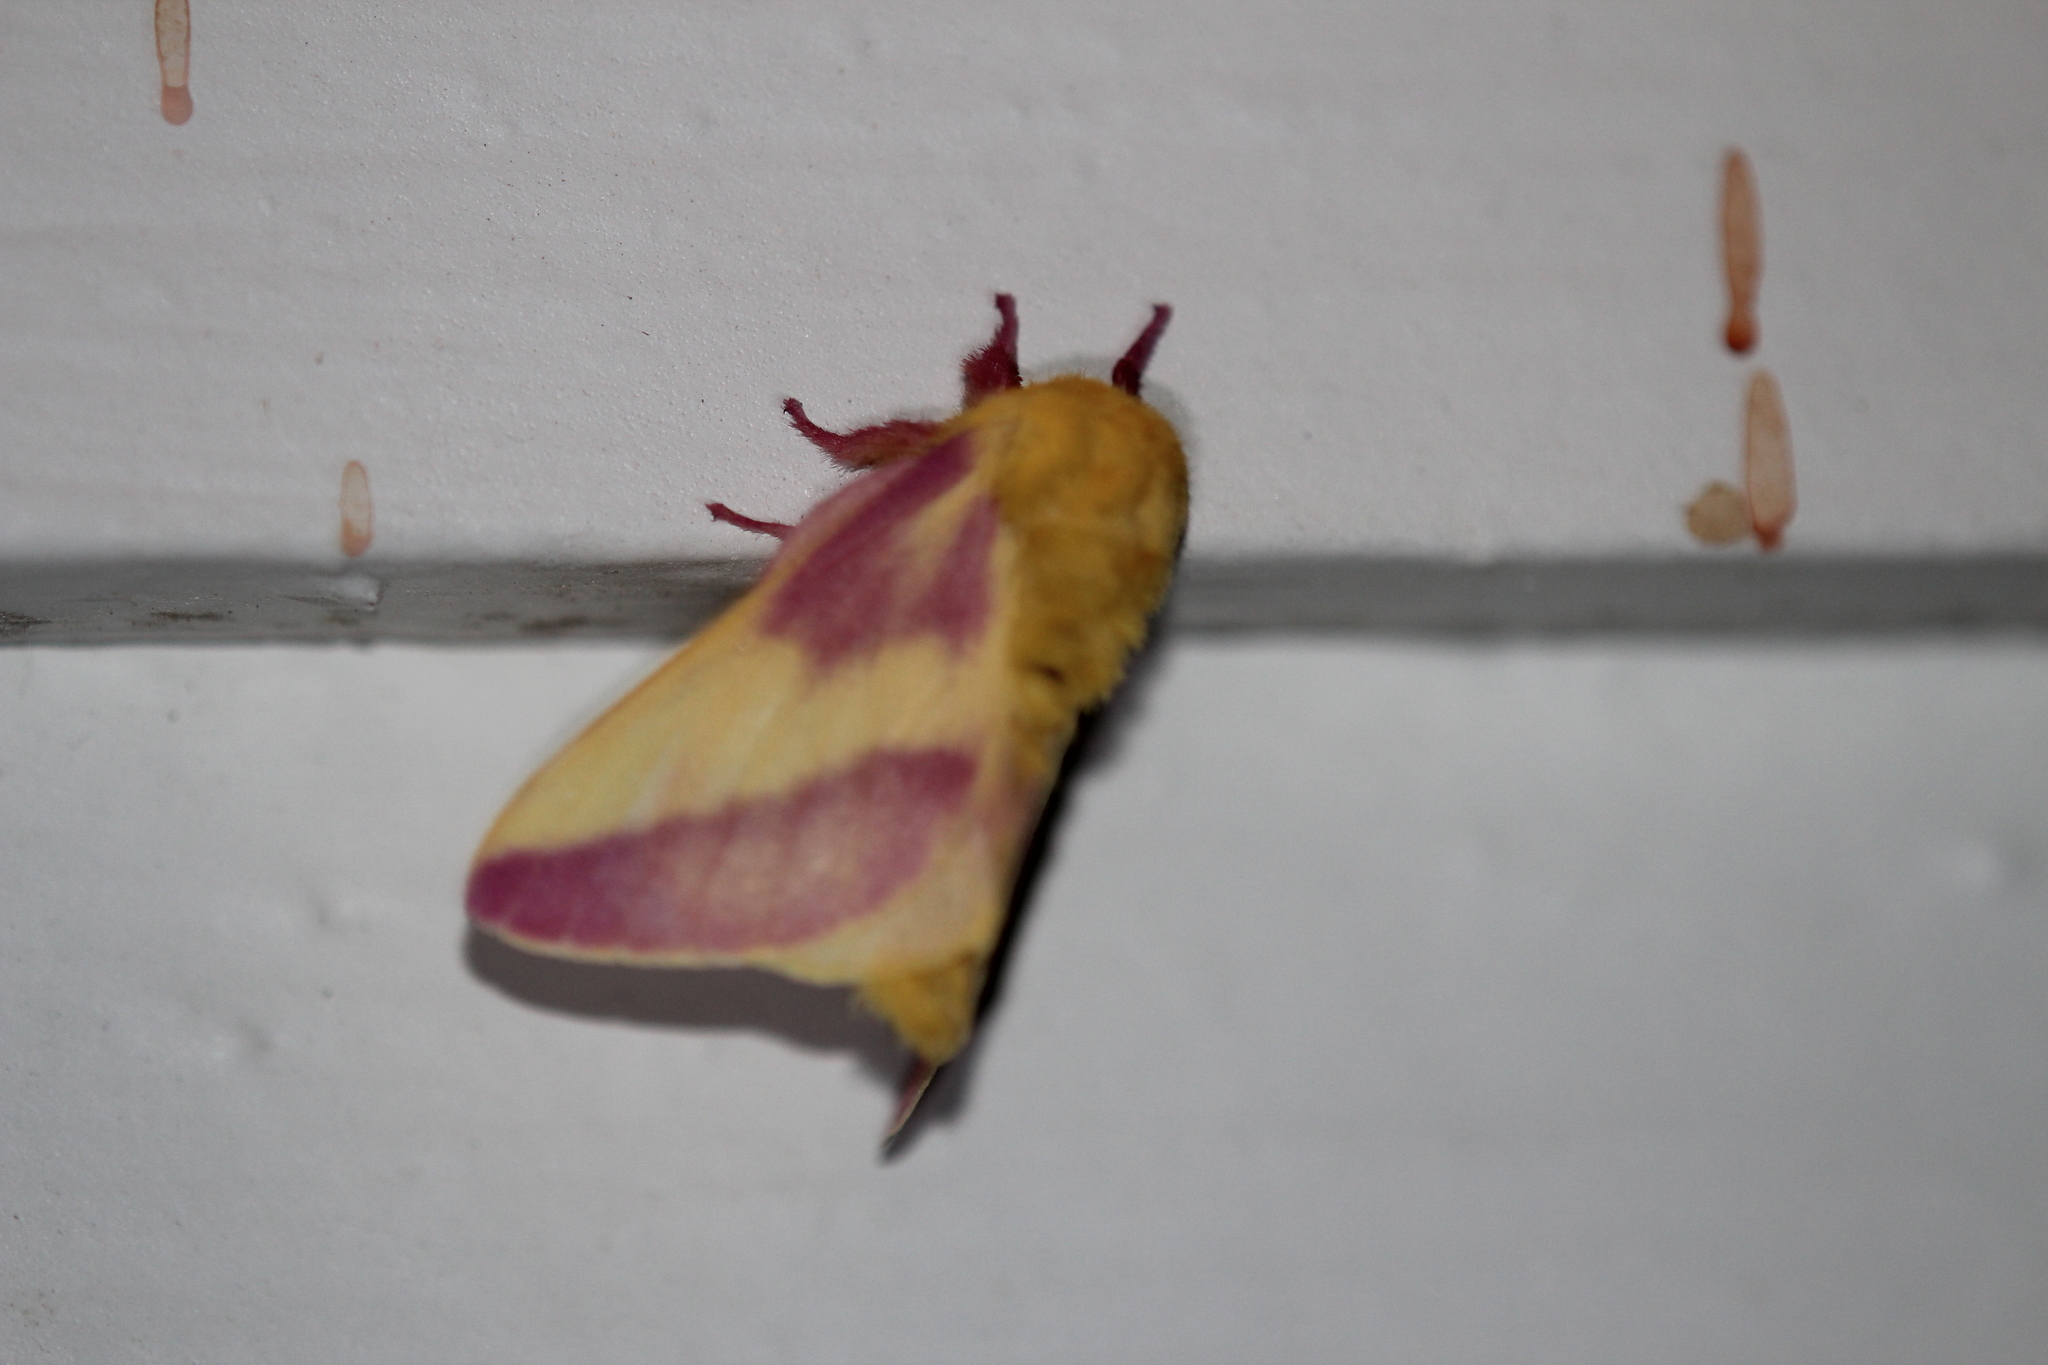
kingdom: Animalia
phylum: Arthropoda
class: Insecta
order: Lepidoptera
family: Saturniidae
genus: Dryocampa
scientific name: Dryocampa rubicunda
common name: Rosy maple moth
